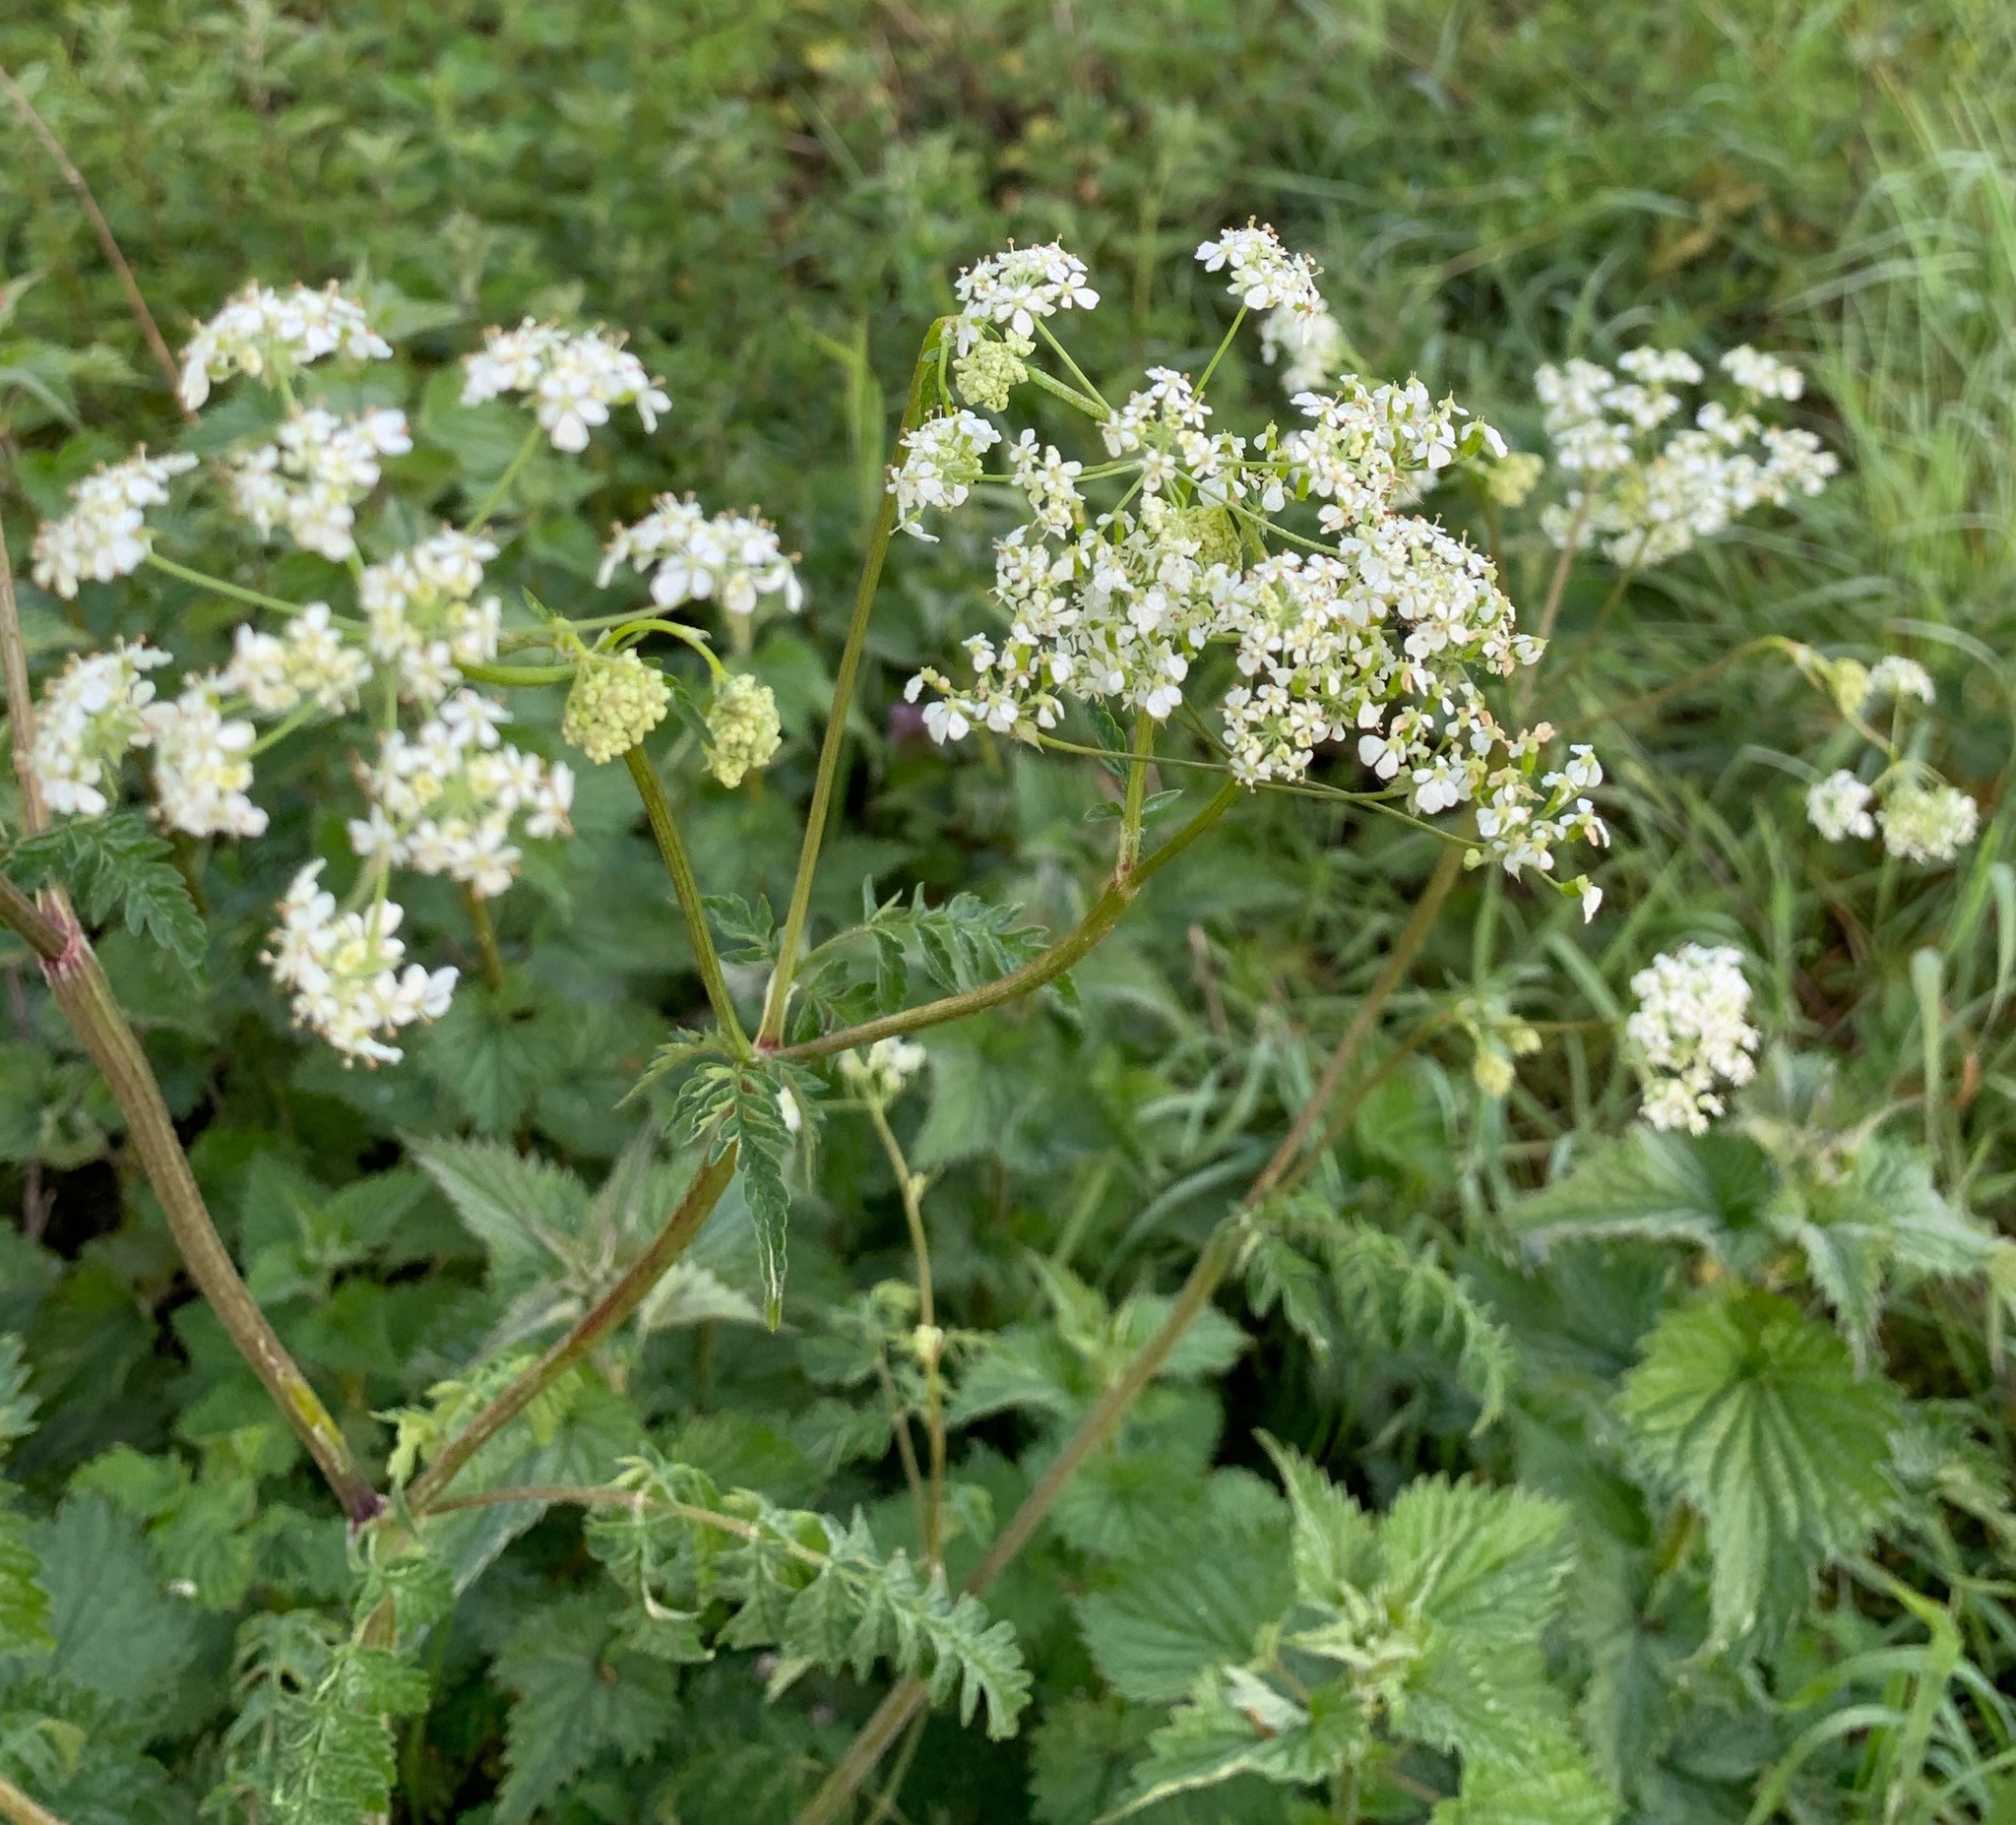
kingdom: Plantae
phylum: Tracheophyta
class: Magnoliopsida
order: Apiales
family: Apiaceae
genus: Anthriscus
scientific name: Anthriscus sylvestris
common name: Cow parsley
